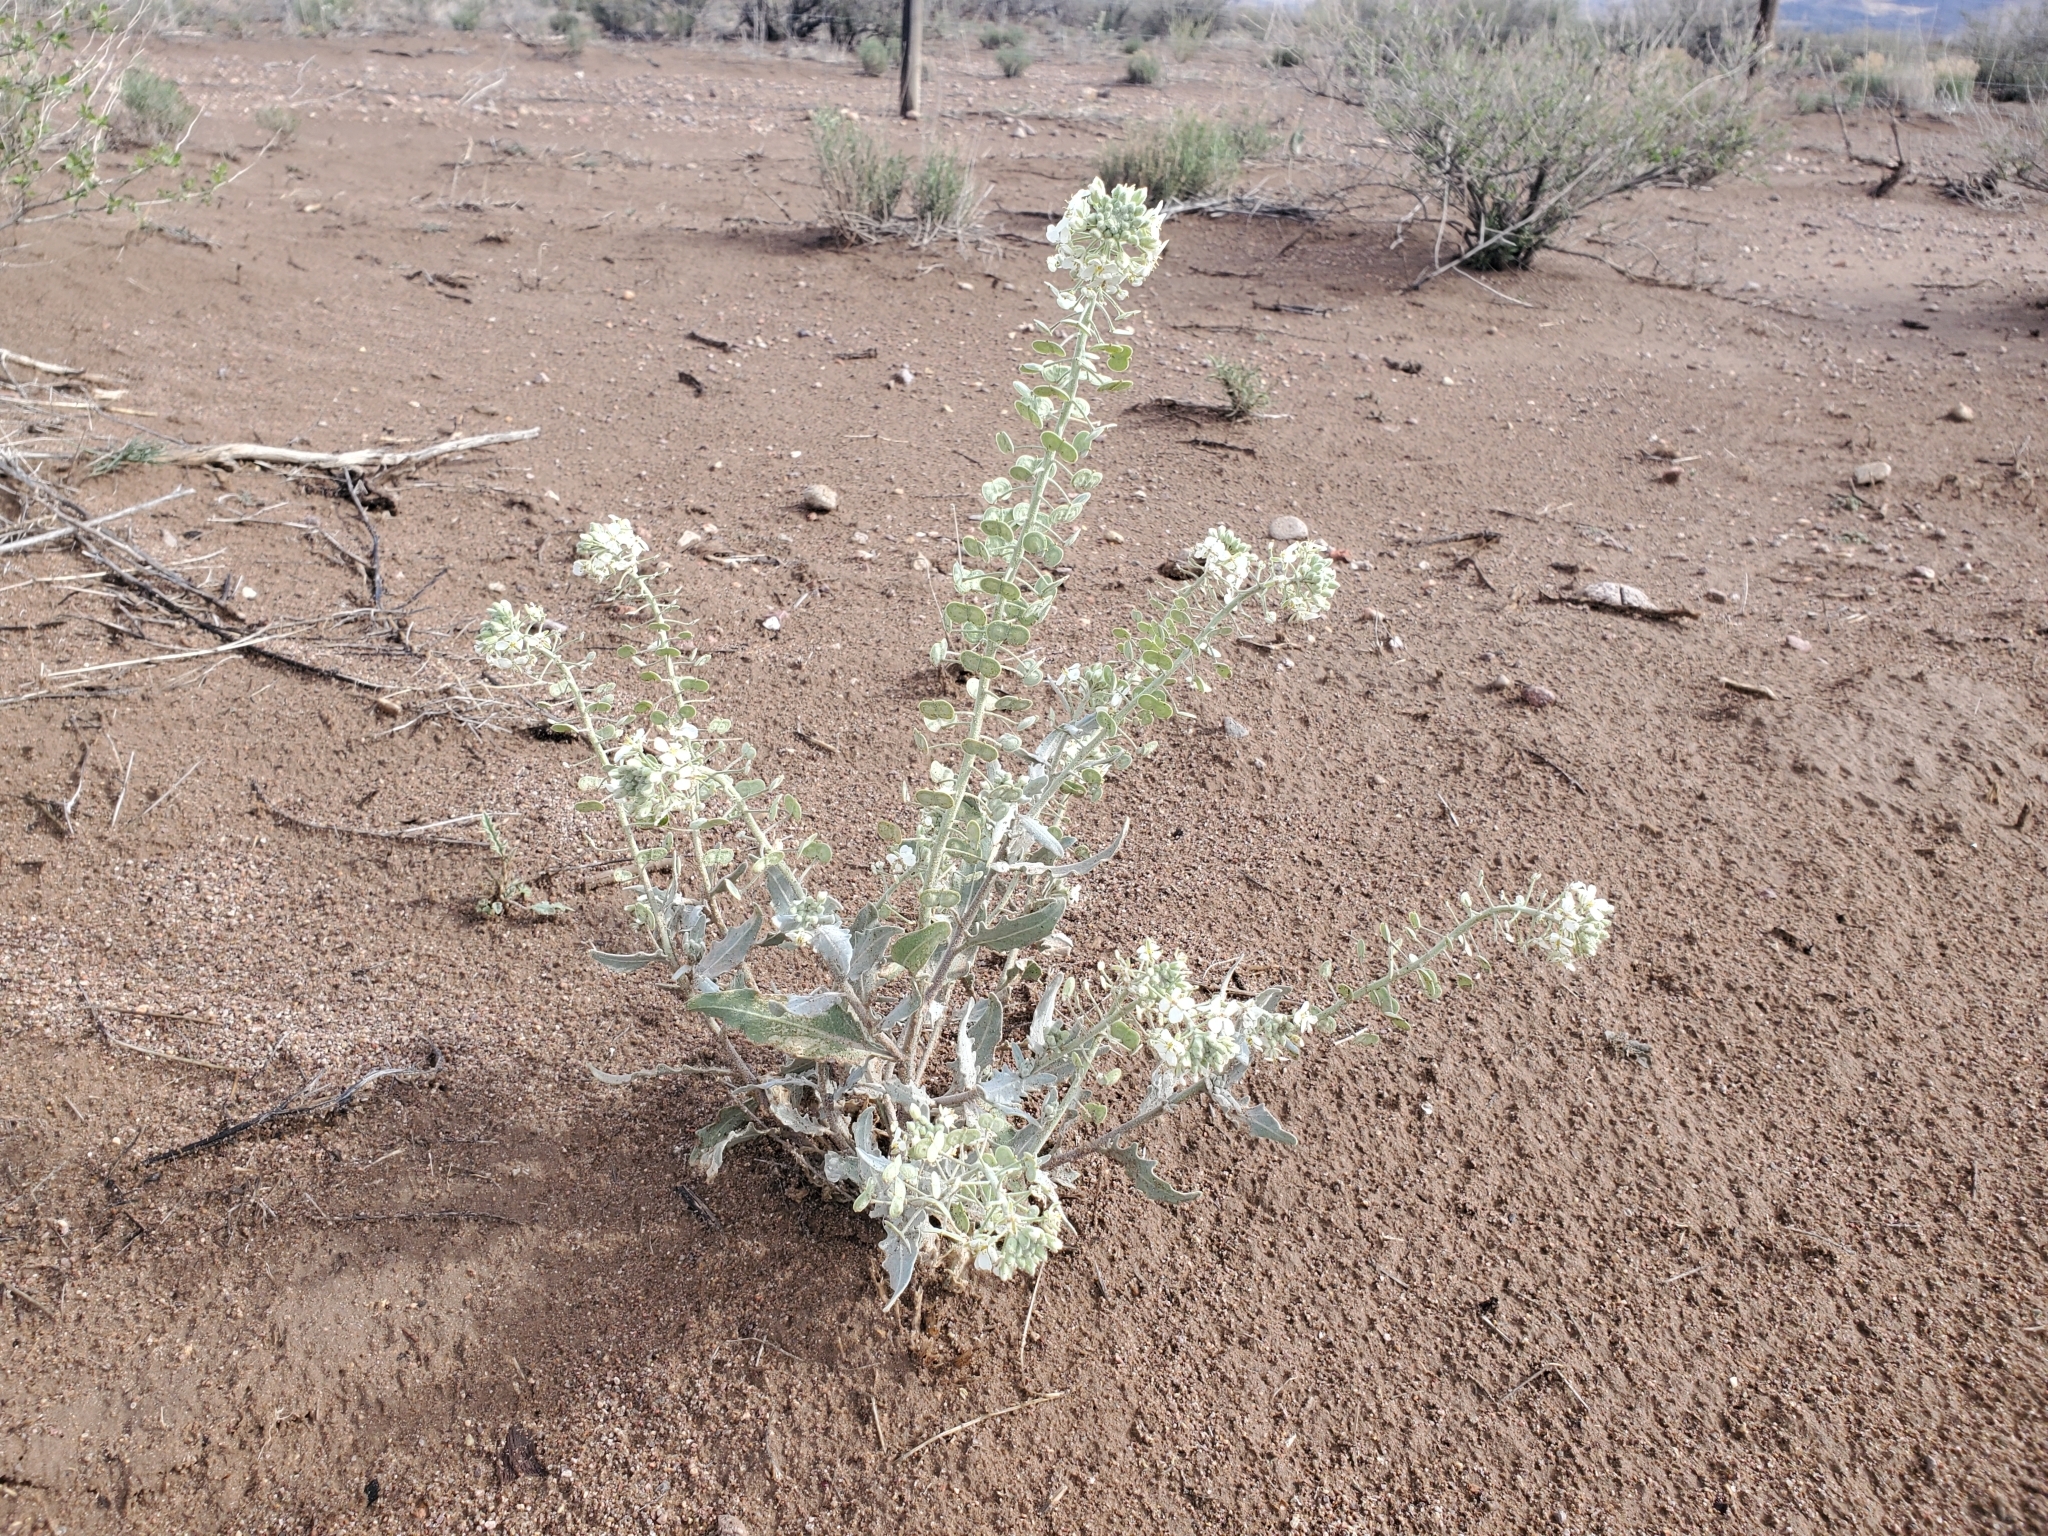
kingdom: Plantae
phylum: Tracheophyta
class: Magnoliopsida
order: Brassicales
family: Brassicaceae
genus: Dimorphocarpa
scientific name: Dimorphocarpa wislizenii
